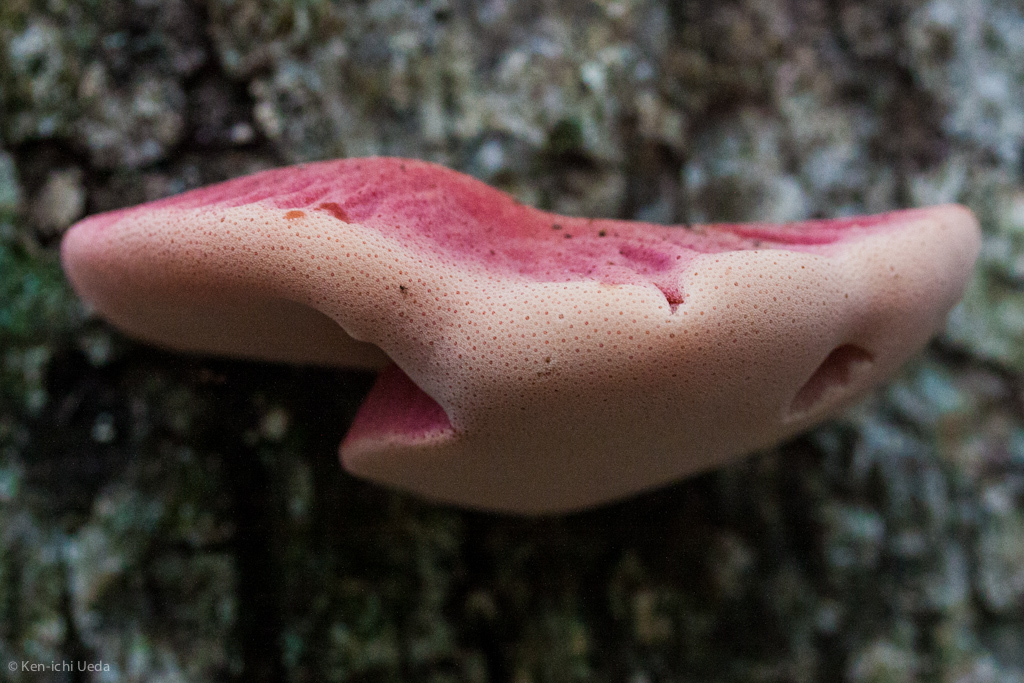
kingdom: Fungi
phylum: Basidiomycota
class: Agaricomycetes
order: Agaricales
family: Fistulinaceae
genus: Fistulina
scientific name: Fistulina hepatica
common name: Beef-steak fungus
